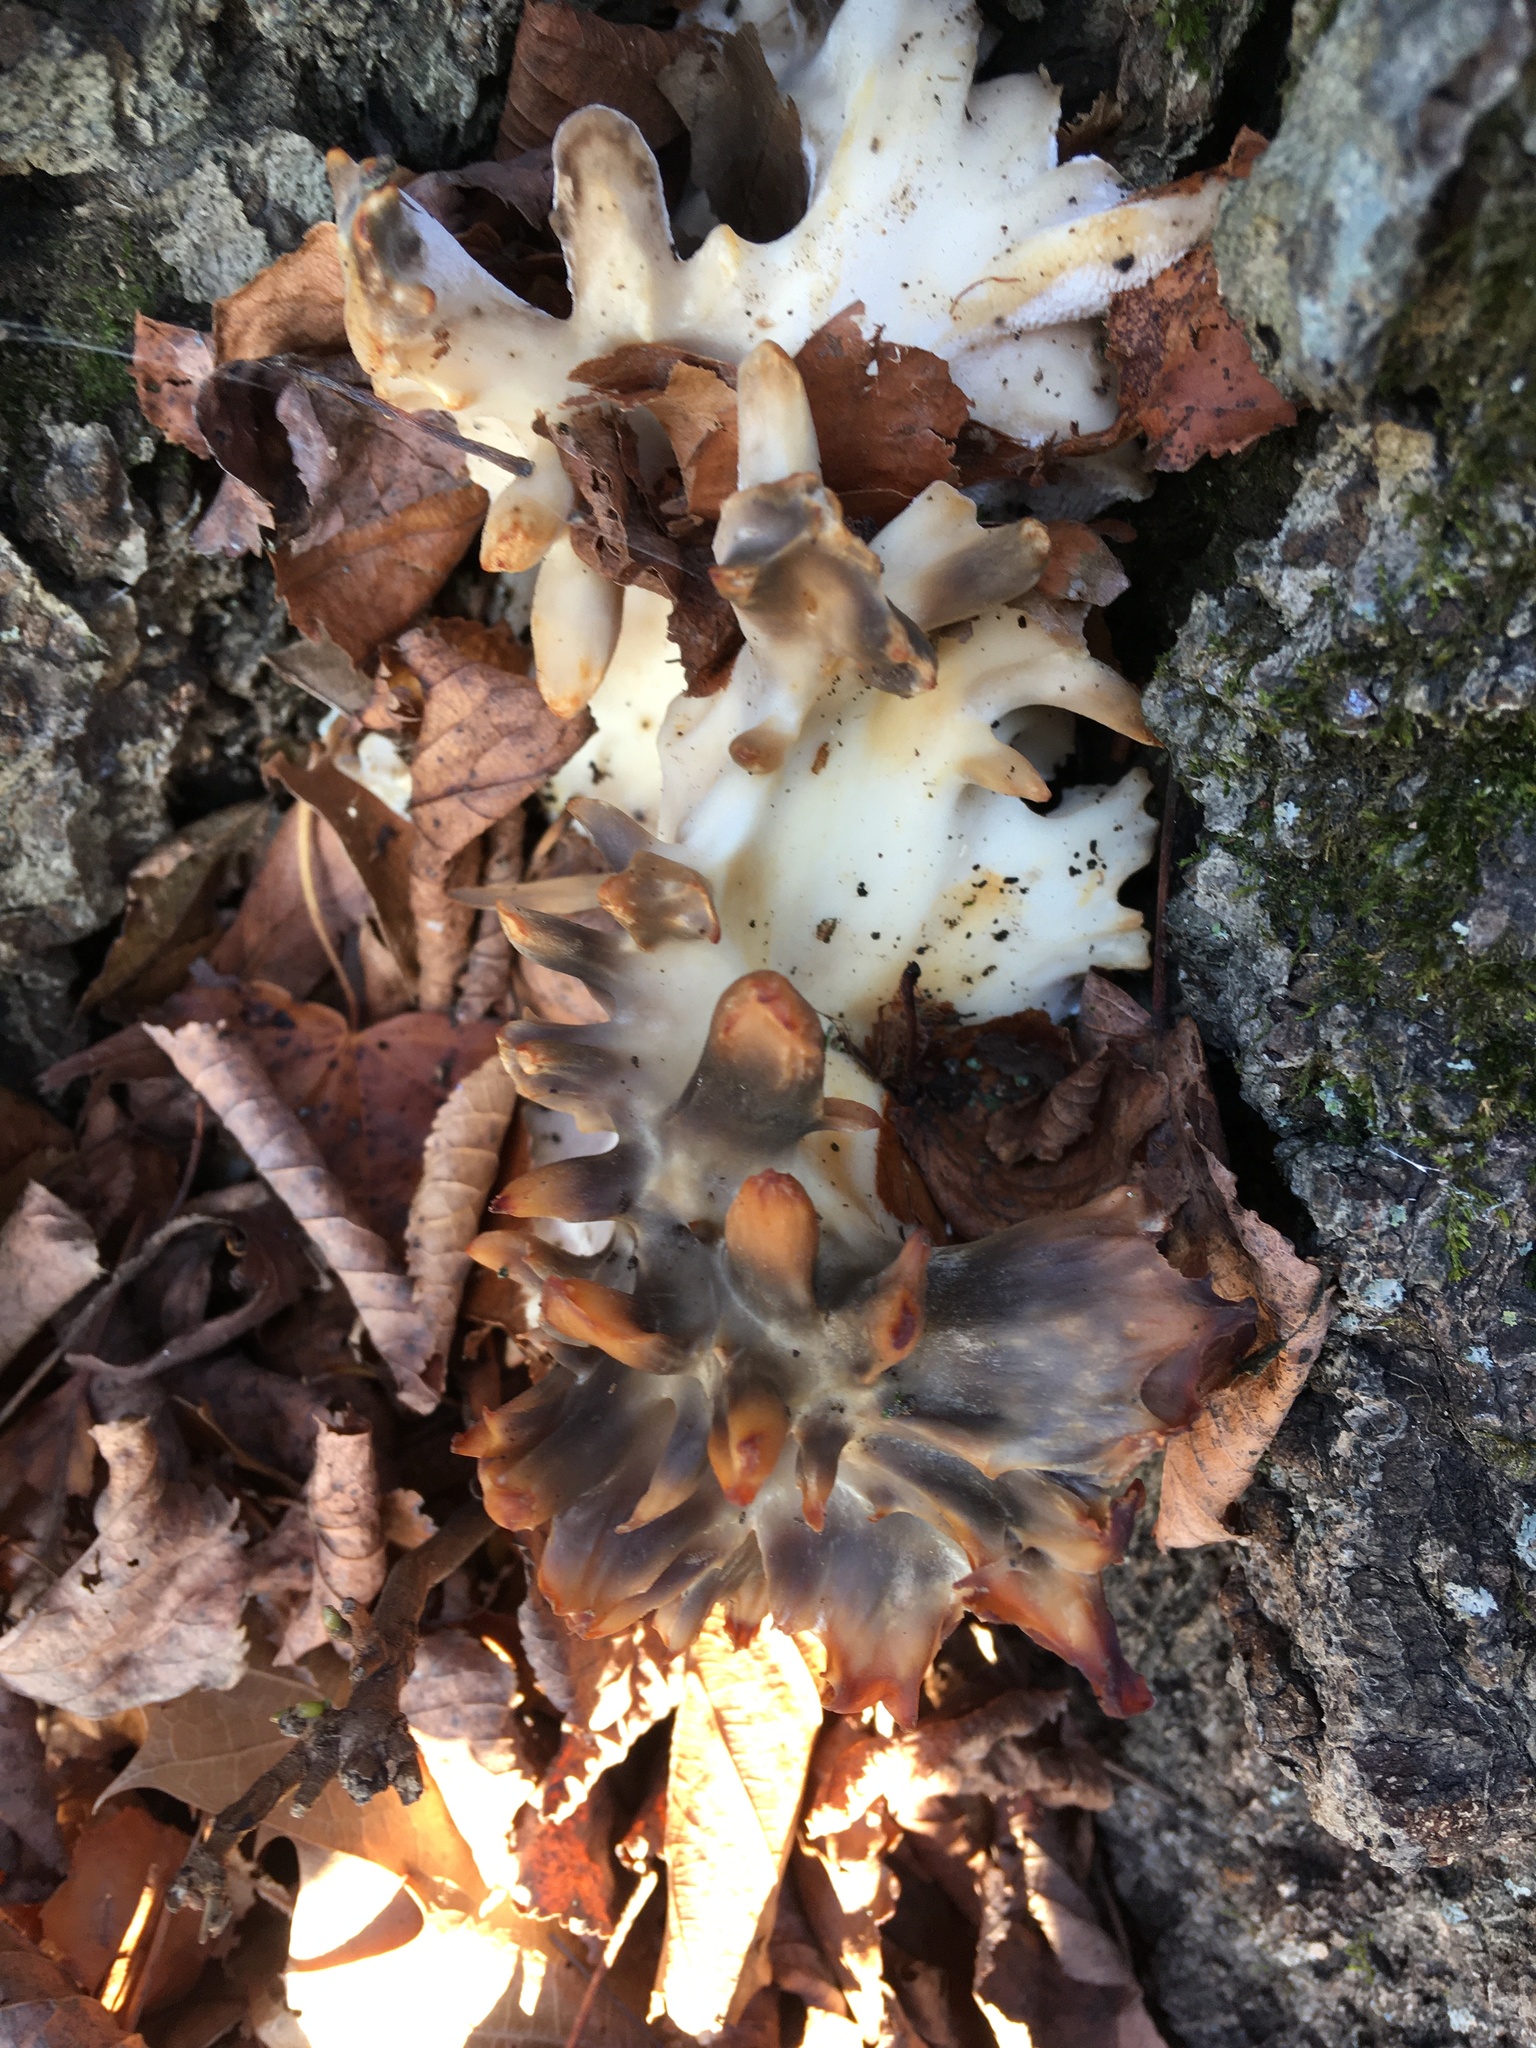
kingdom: Fungi
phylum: Basidiomycota
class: Agaricomycetes
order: Polyporales
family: Grifolaceae
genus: Grifola
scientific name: Grifola frondosa
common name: Hen of the woods
